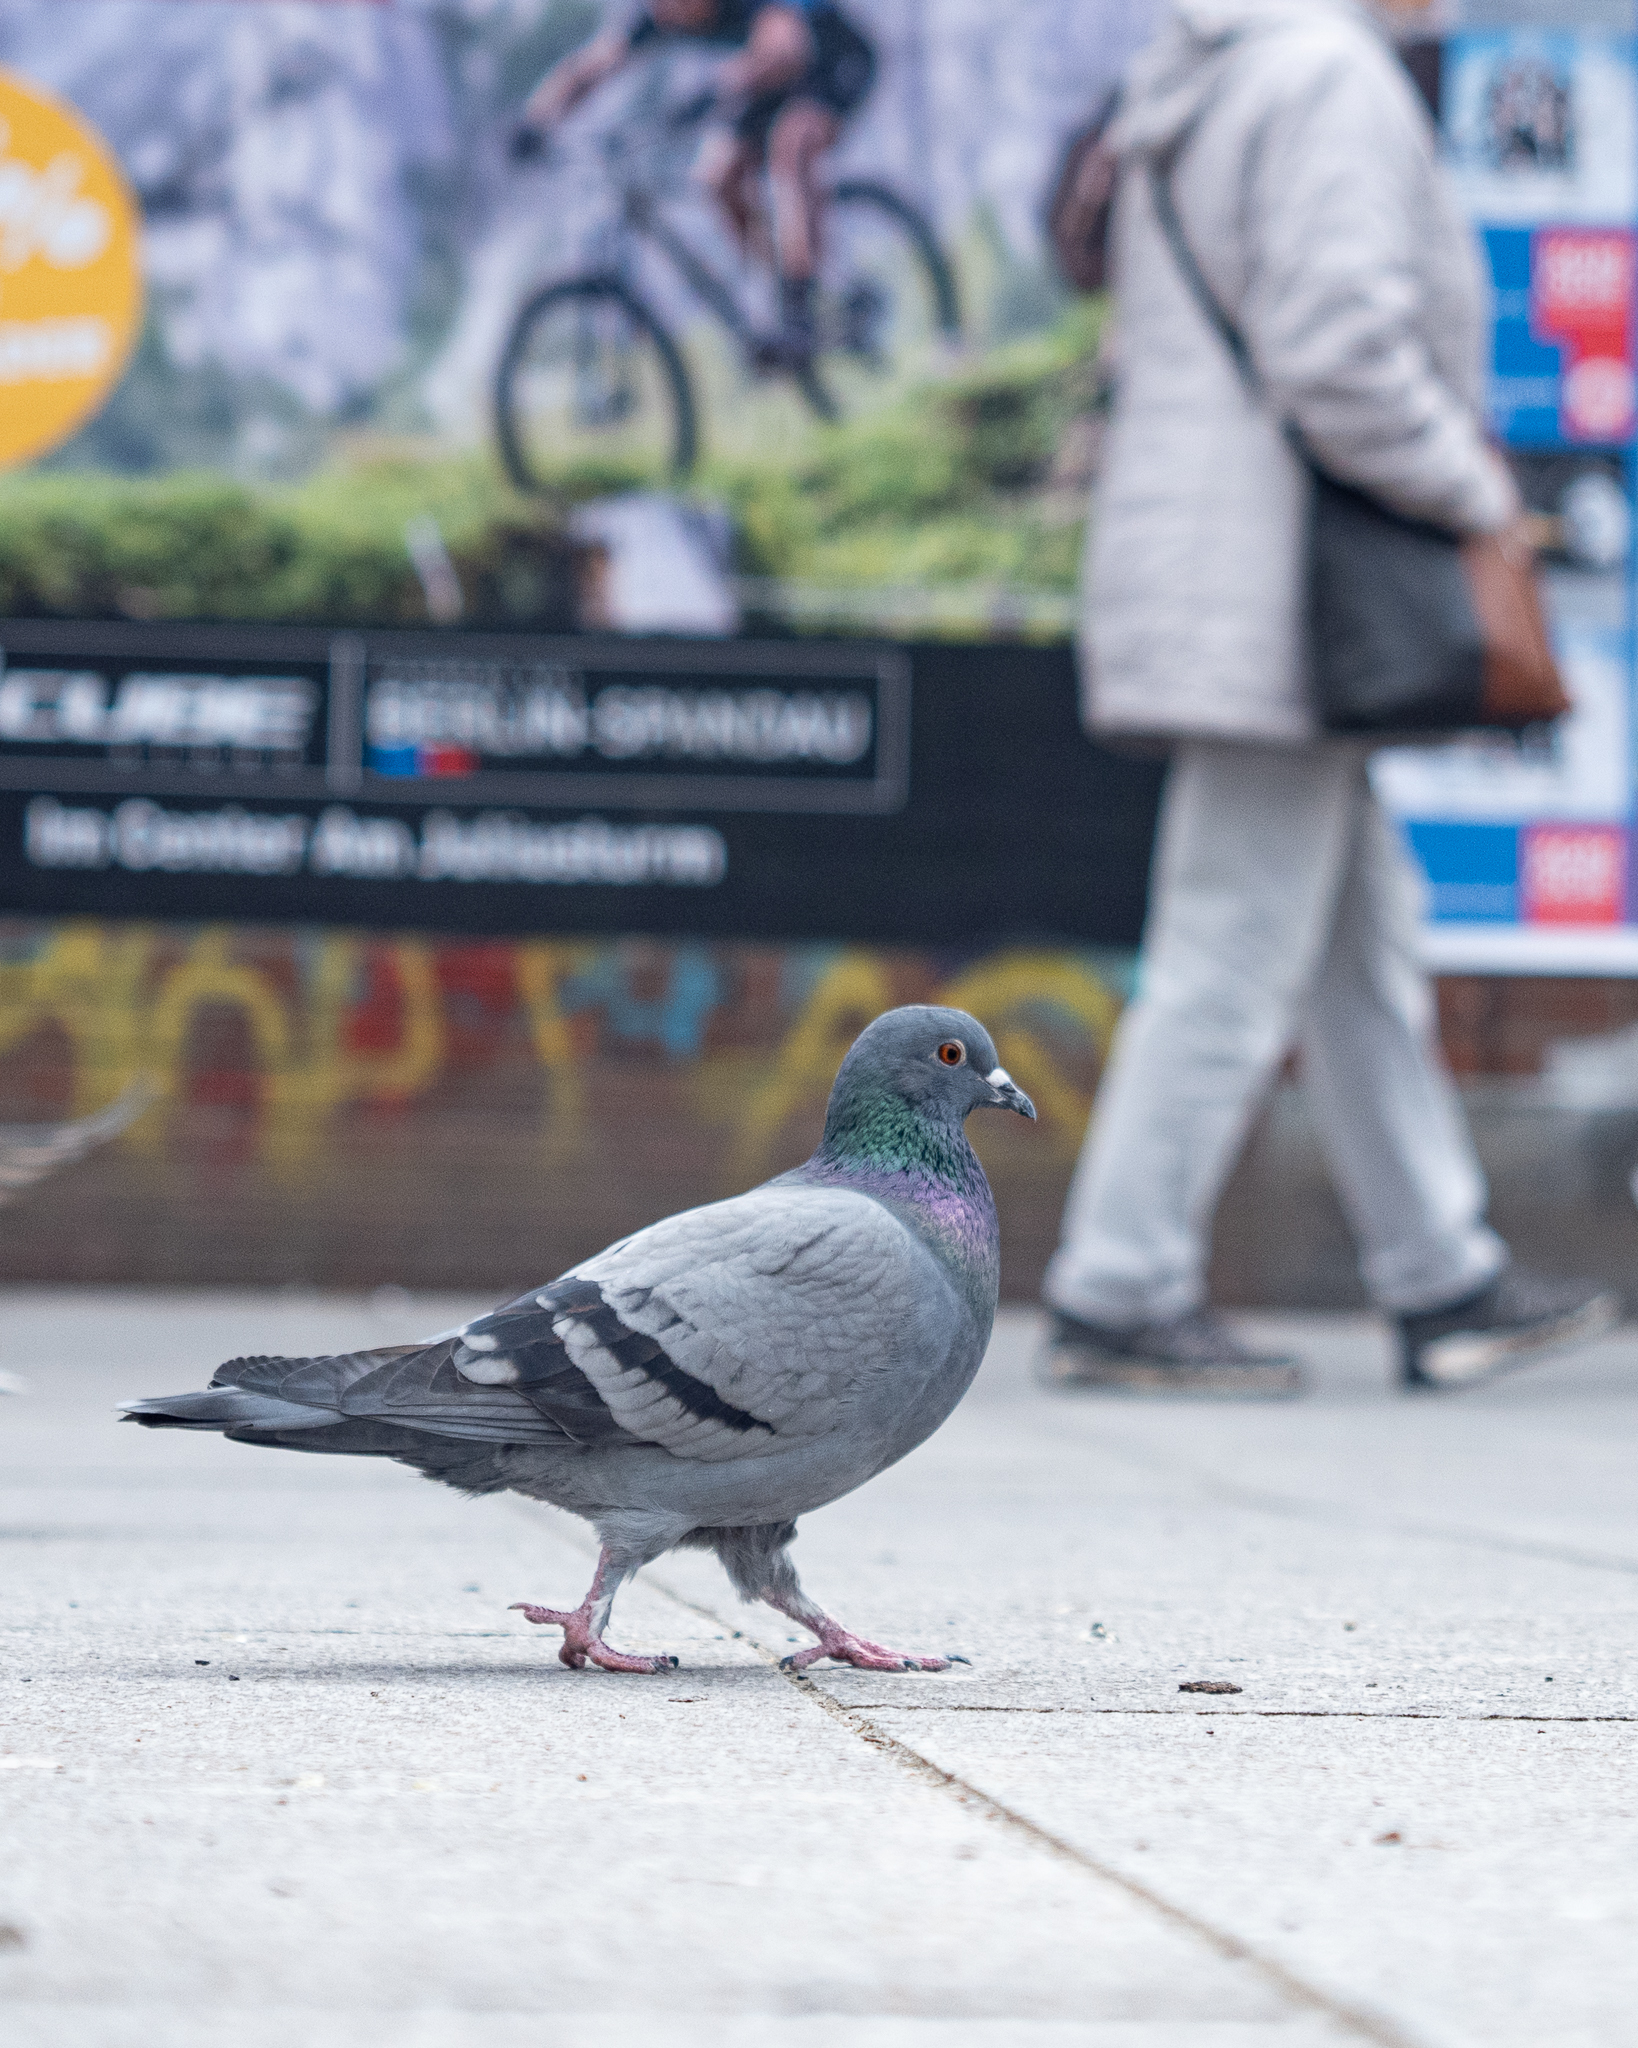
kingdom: Animalia
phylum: Chordata
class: Aves
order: Columbiformes
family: Columbidae
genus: Columba
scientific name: Columba livia
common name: Rock pigeon
